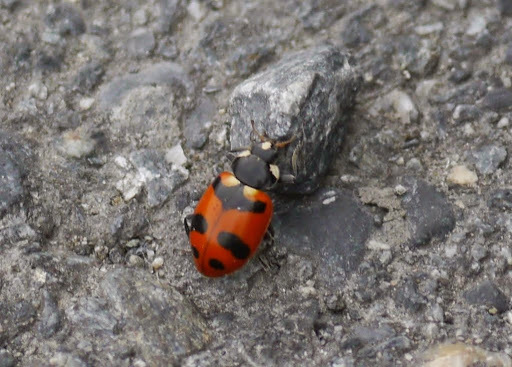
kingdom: Animalia
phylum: Arthropoda
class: Insecta
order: Coleoptera
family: Coccinellidae
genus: Hippodamia
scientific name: Hippodamia quinquesignata
